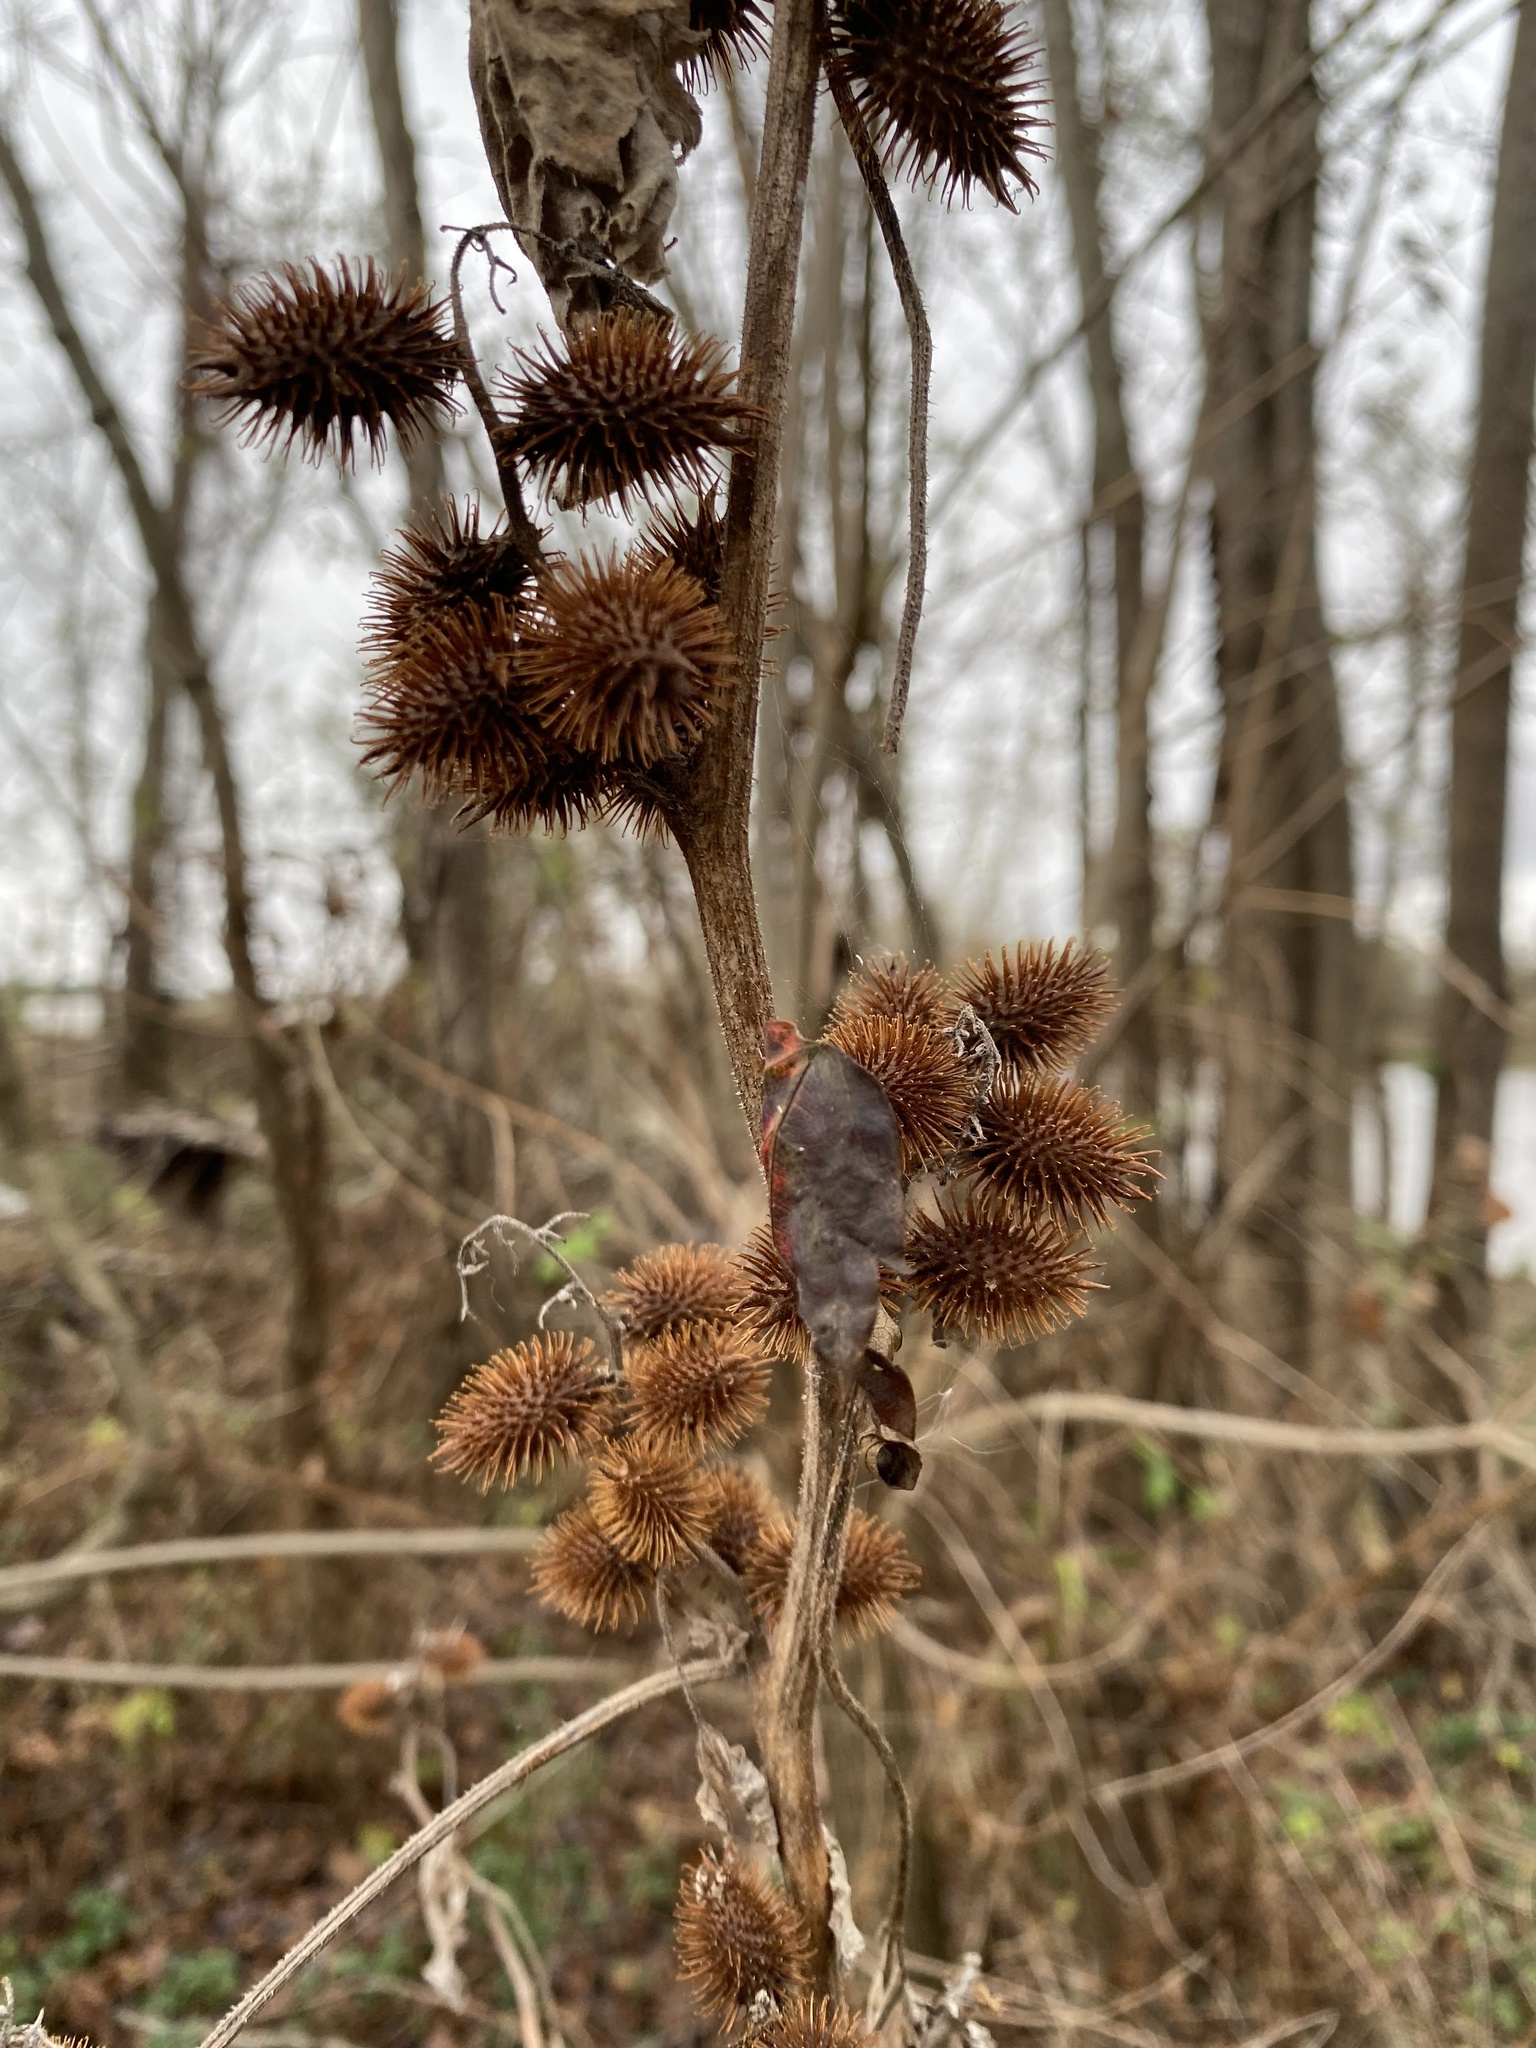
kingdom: Plantae
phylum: Tracheophyta
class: Magnoliopsida
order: Asterales
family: Asteraceae
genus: Xanthium
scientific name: Xanthium strumarium
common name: Rough cocklebur
